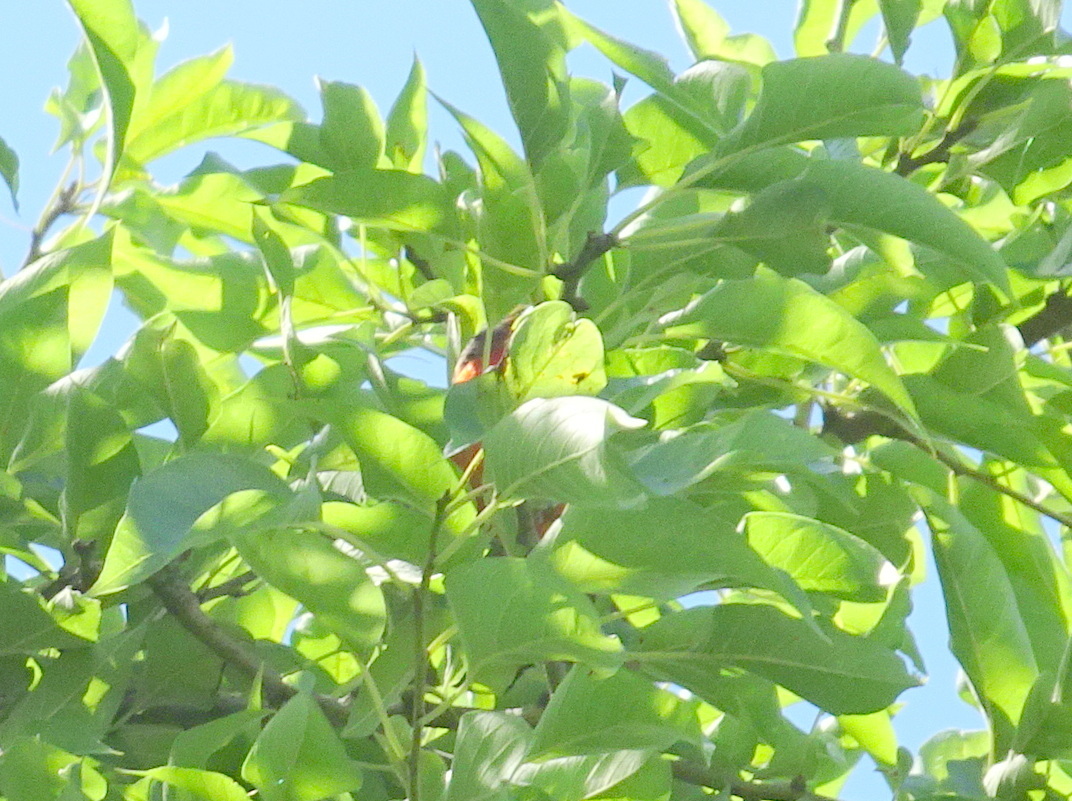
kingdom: Animalia
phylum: Chordata
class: Aves
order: Passeriformes
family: Cardinalidae
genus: Passerina
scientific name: Passerina ciris
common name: Painted bunting
